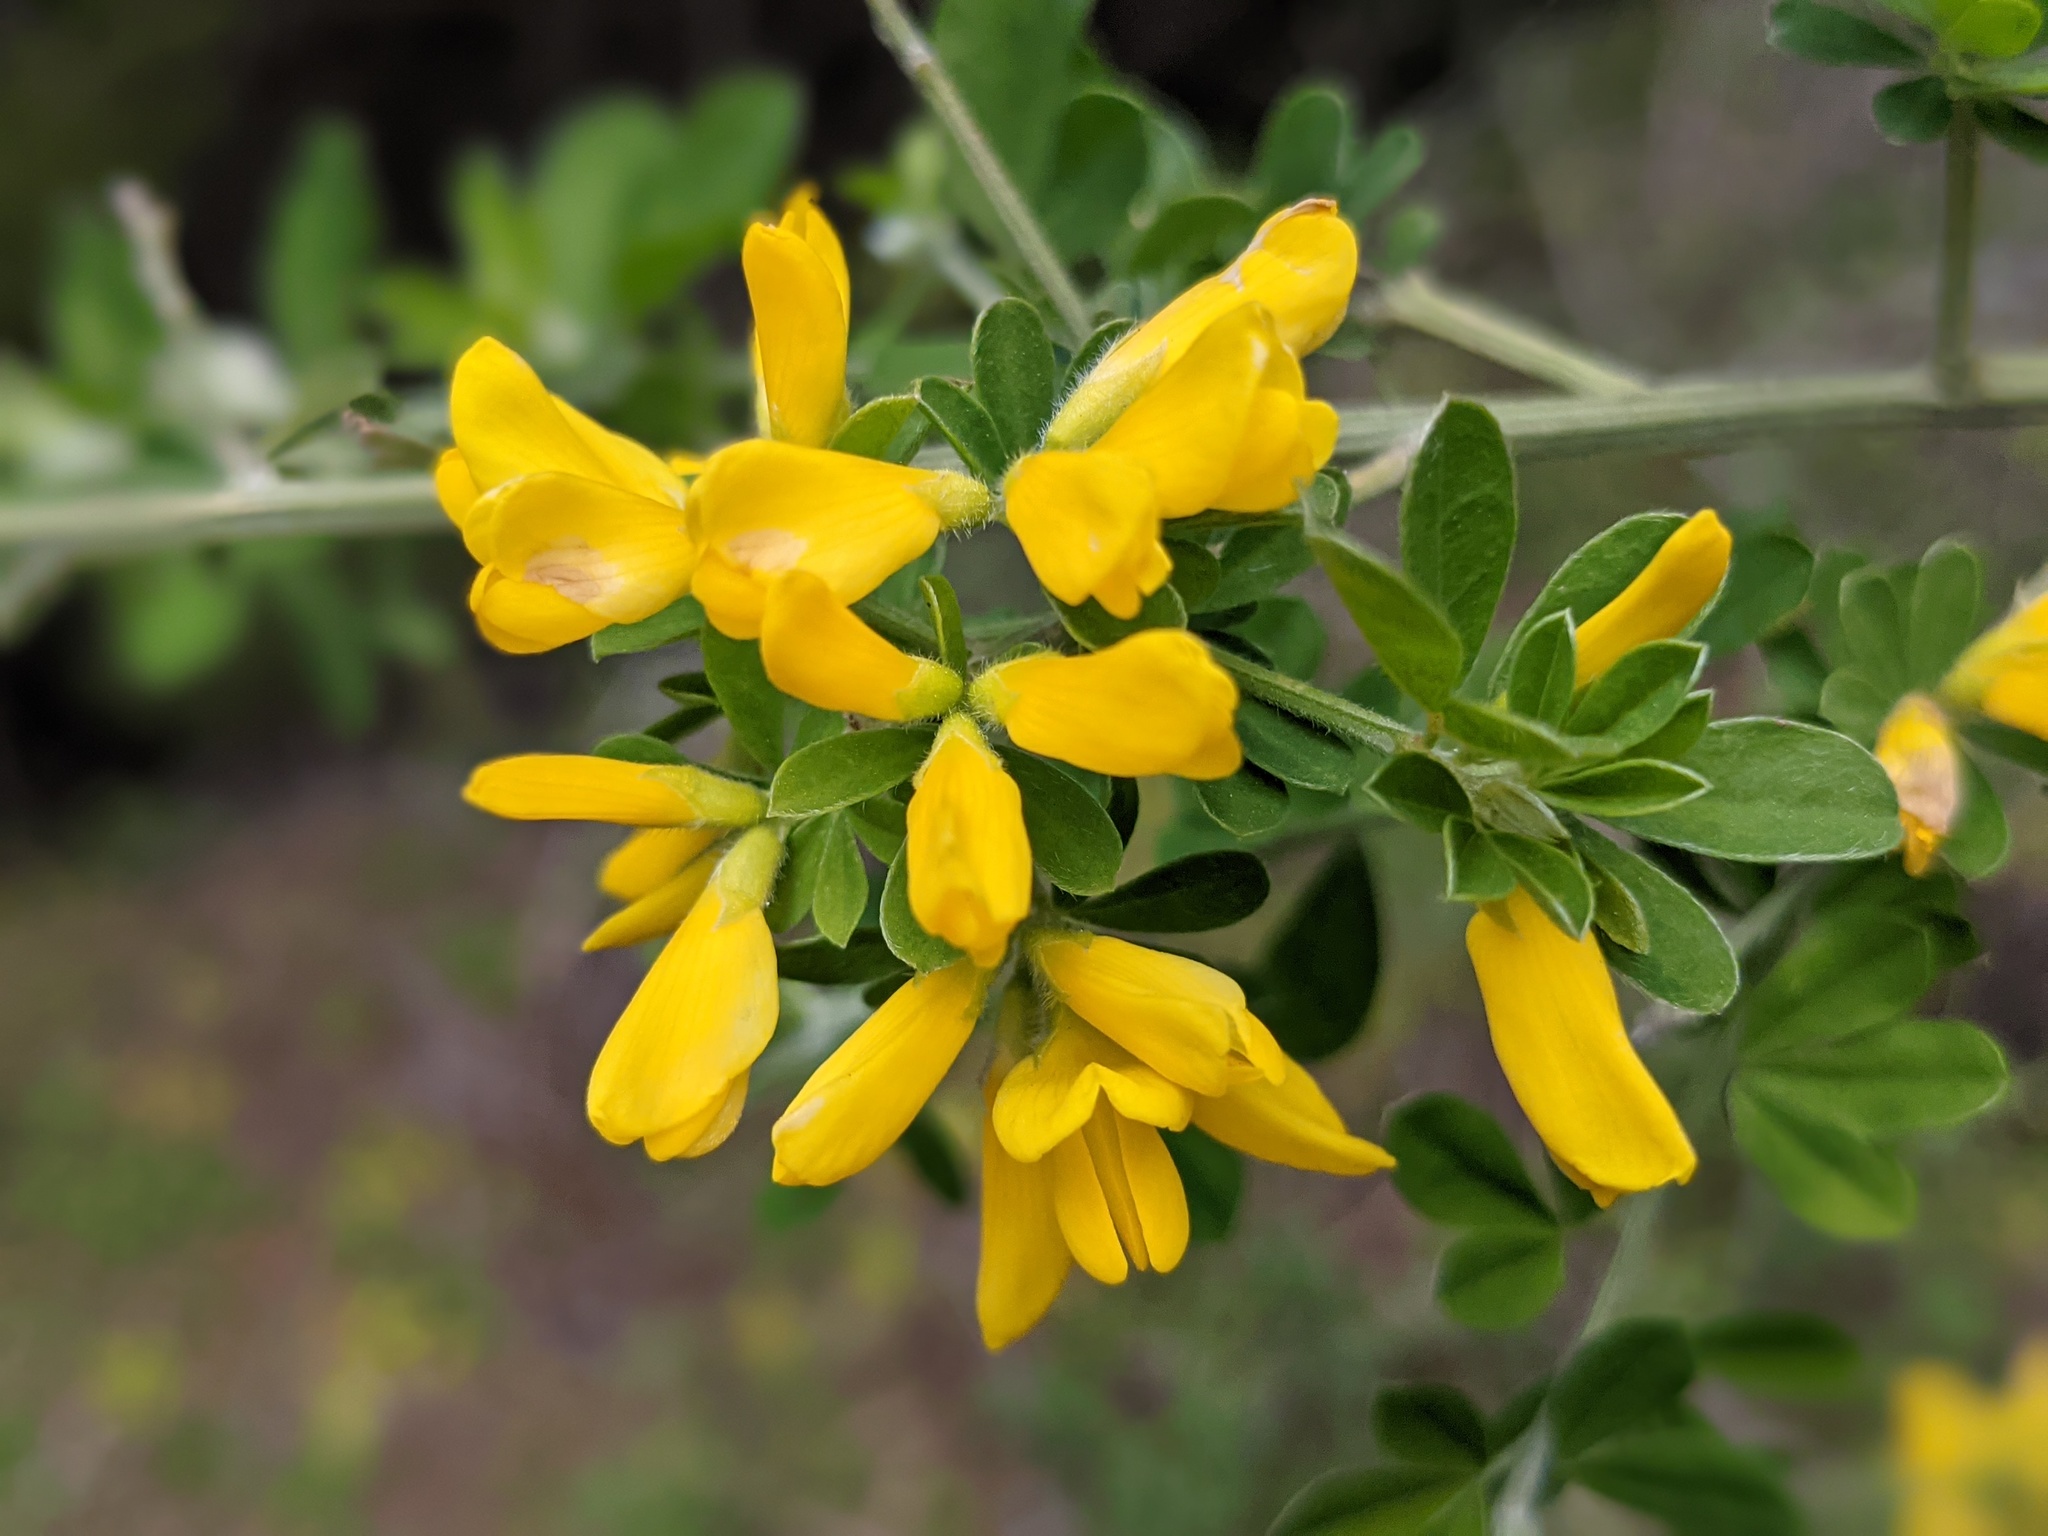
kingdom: Plantae
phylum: Tracheophyta
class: Magnoliopsida
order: Fabales
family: Fabaceae
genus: Genista
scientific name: Genista monspessulana
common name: Montpellier broom
